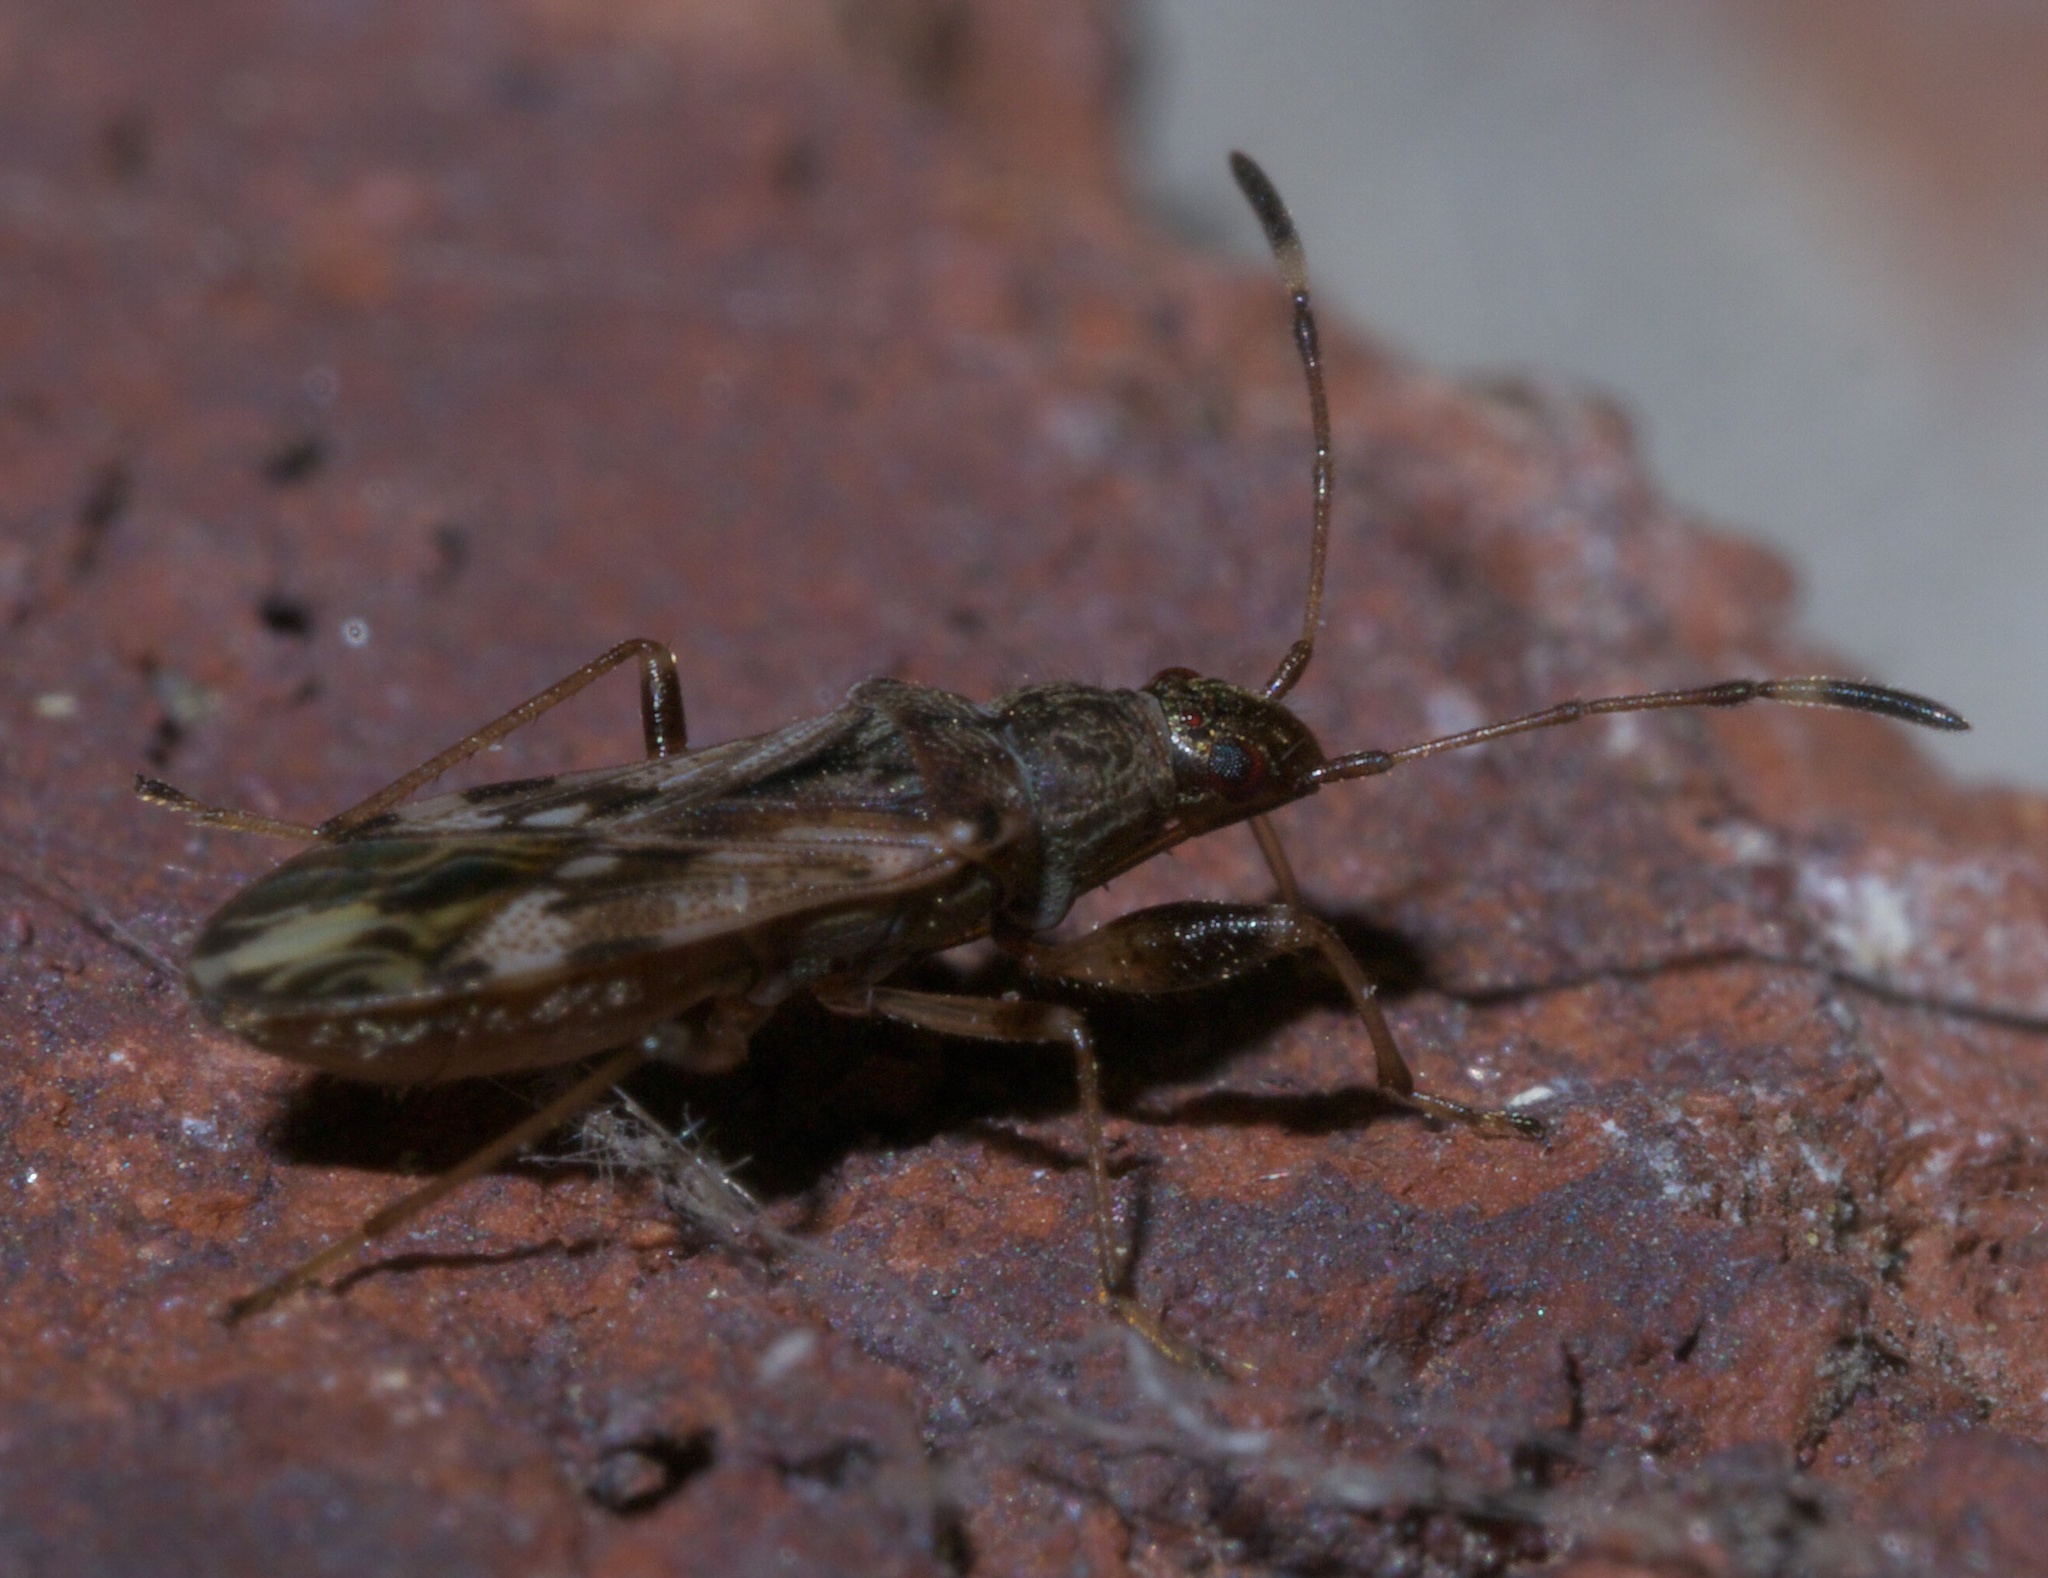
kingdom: Animalia
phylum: Arthropoda
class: Insecta
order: Hemiptera
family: Rhyparochromidae
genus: Neopamera
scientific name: Neopamera albocincta
